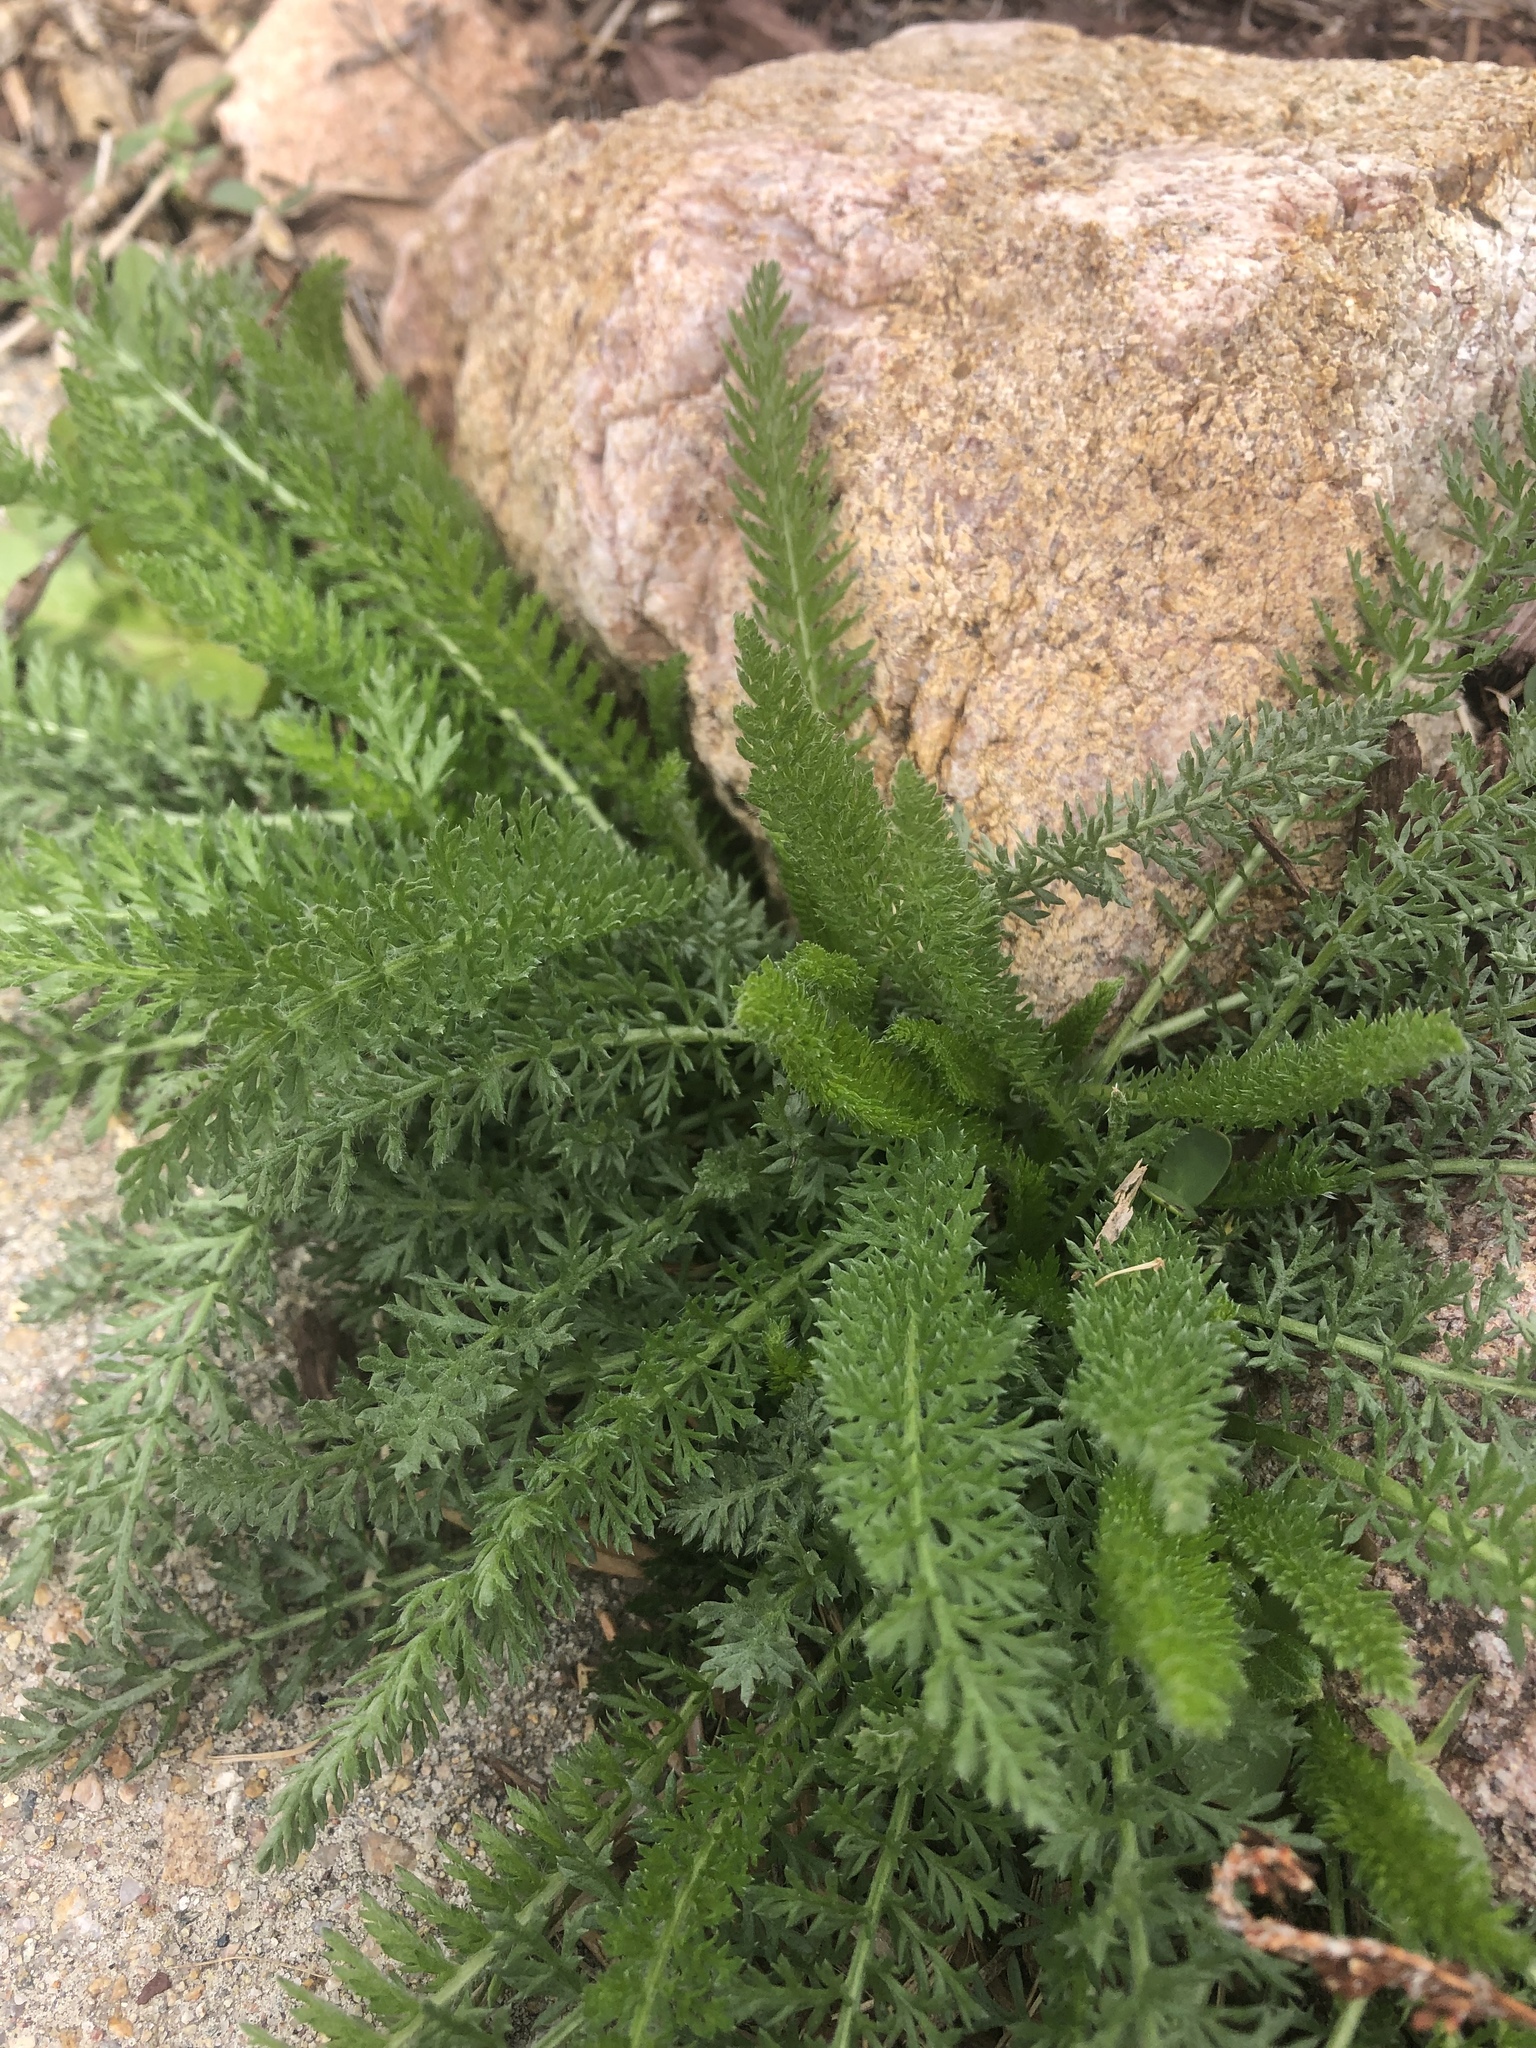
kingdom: Plantae
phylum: Tracheophyta
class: Magnoliopsida
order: Asterales
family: Asteraceae
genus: Achillea
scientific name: Achillea millefolium
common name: Yarrow
